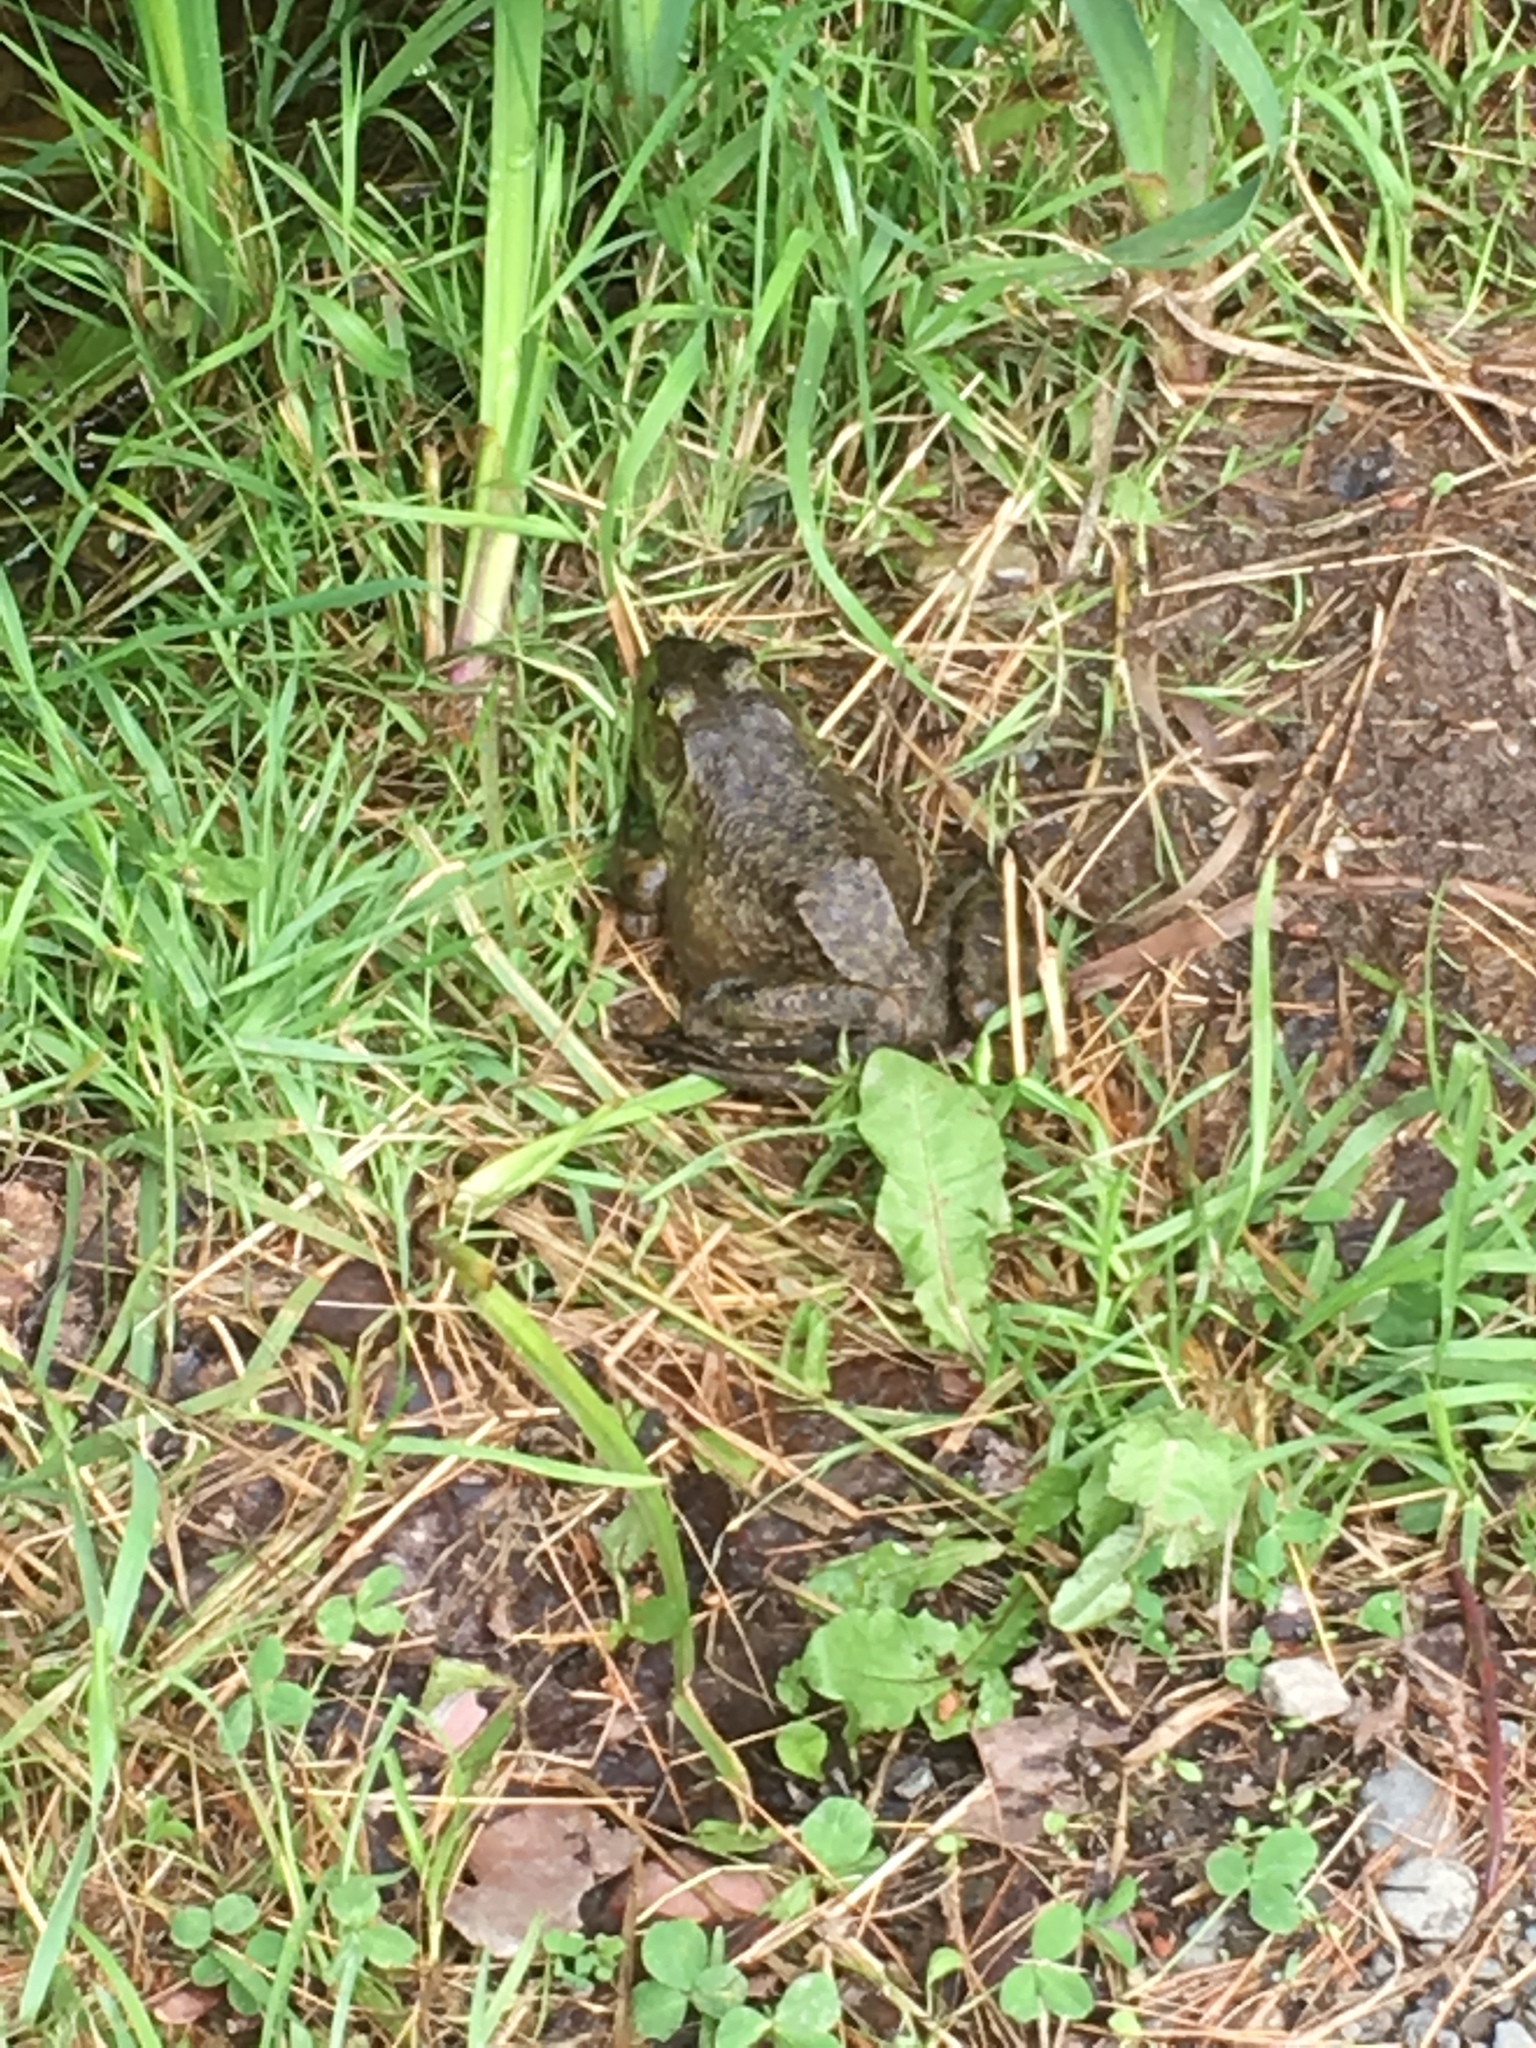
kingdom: Animalia
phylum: Chordata
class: Amphibia
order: Anura
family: Ranidae
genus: Lithobates
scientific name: Lithobates catesbeianus
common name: American bullfrog
